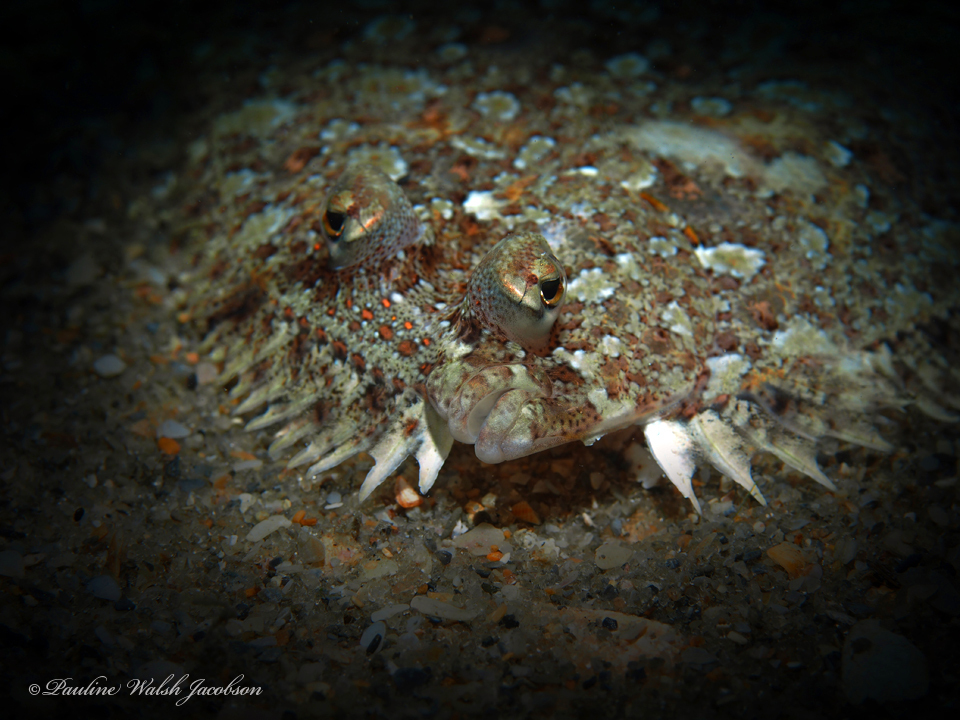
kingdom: Animalia
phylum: Chordata
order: Pleuronectiformes
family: Bothidae
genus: Bothus
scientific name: Bothus ocellatus
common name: Eyed flounder
